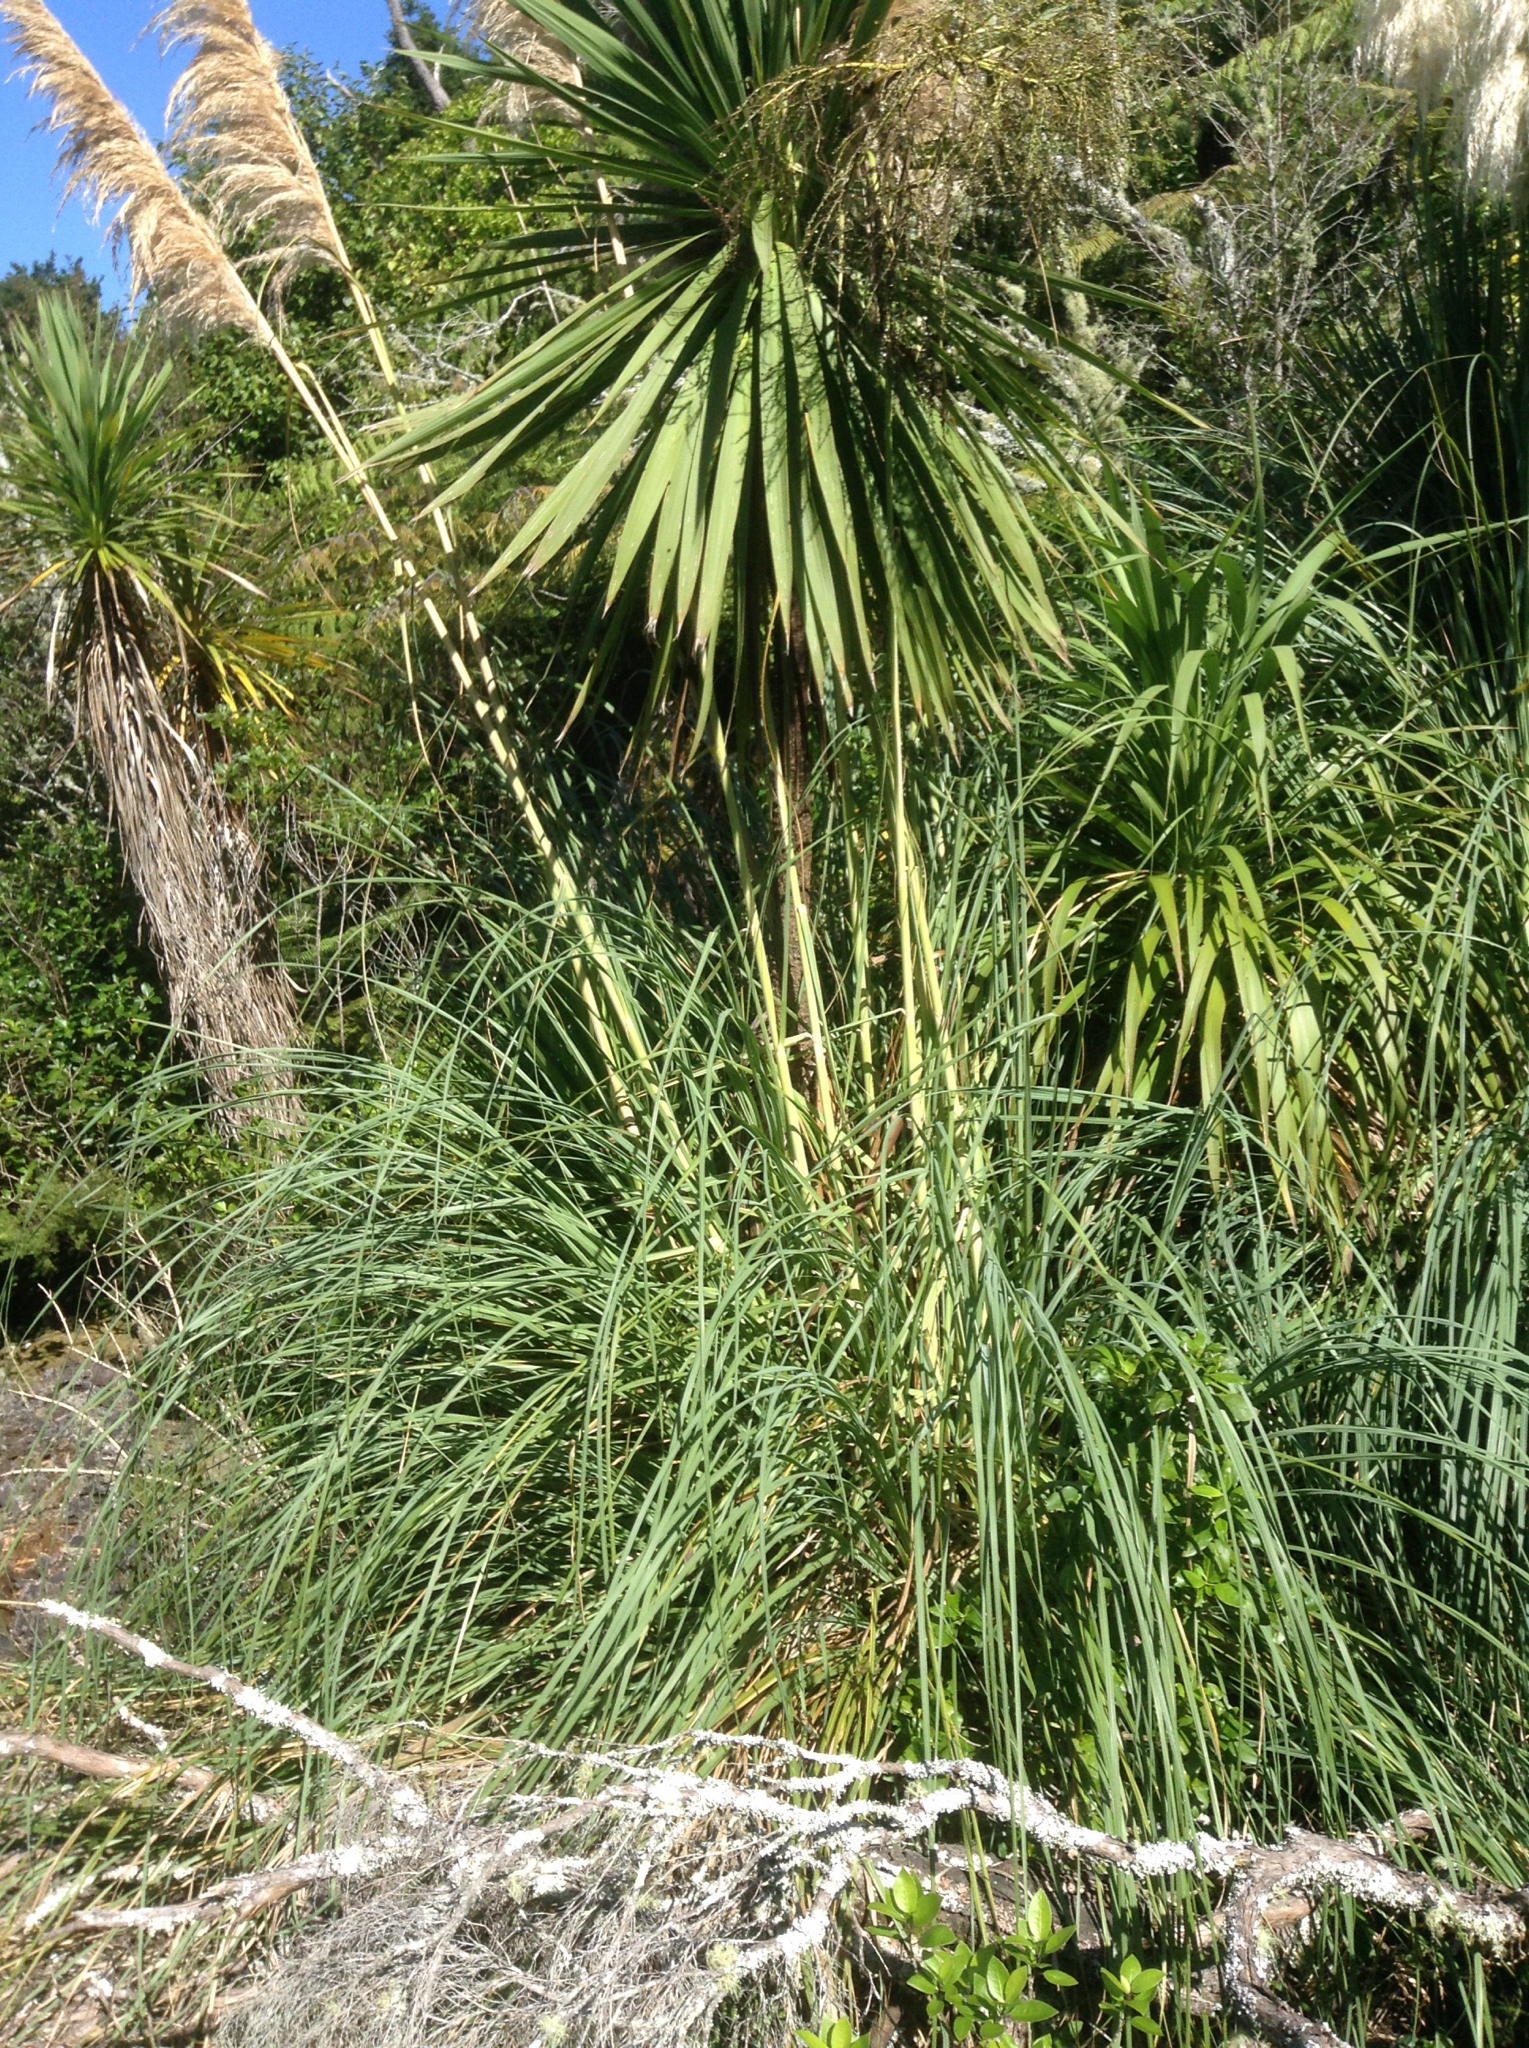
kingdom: Plantae
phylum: Tracheophyta
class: Liliopsida
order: Poales
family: Poaceae
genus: Cortaderia
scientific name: Cortaderia selloana
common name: Uruguayan pampas grass
